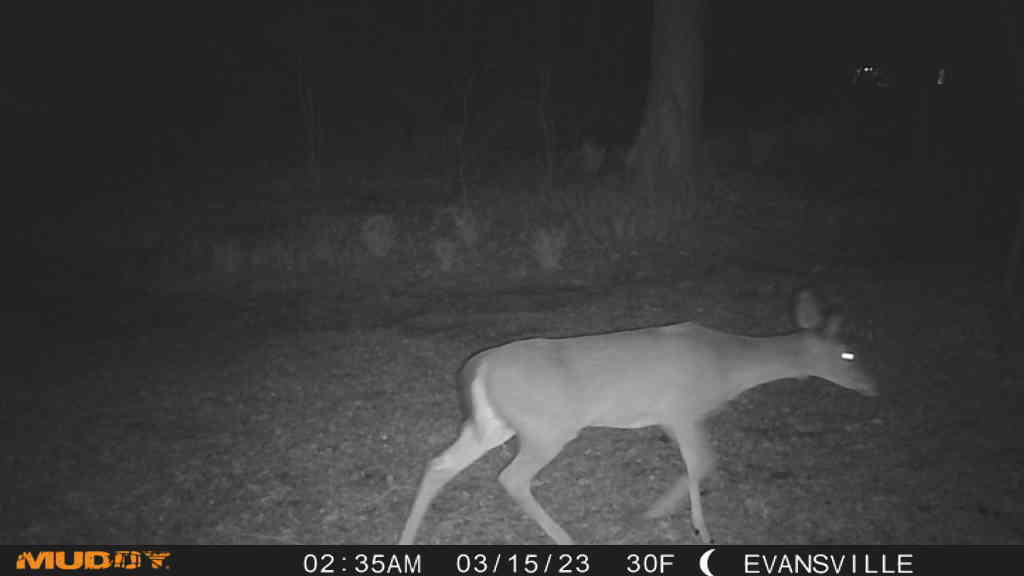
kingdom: Animalia
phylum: Chordata
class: Mammalia
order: Artiodactyla
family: Cervidae
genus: Odocoileus
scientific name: Odocoileus virginianus
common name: White-tailed deer
